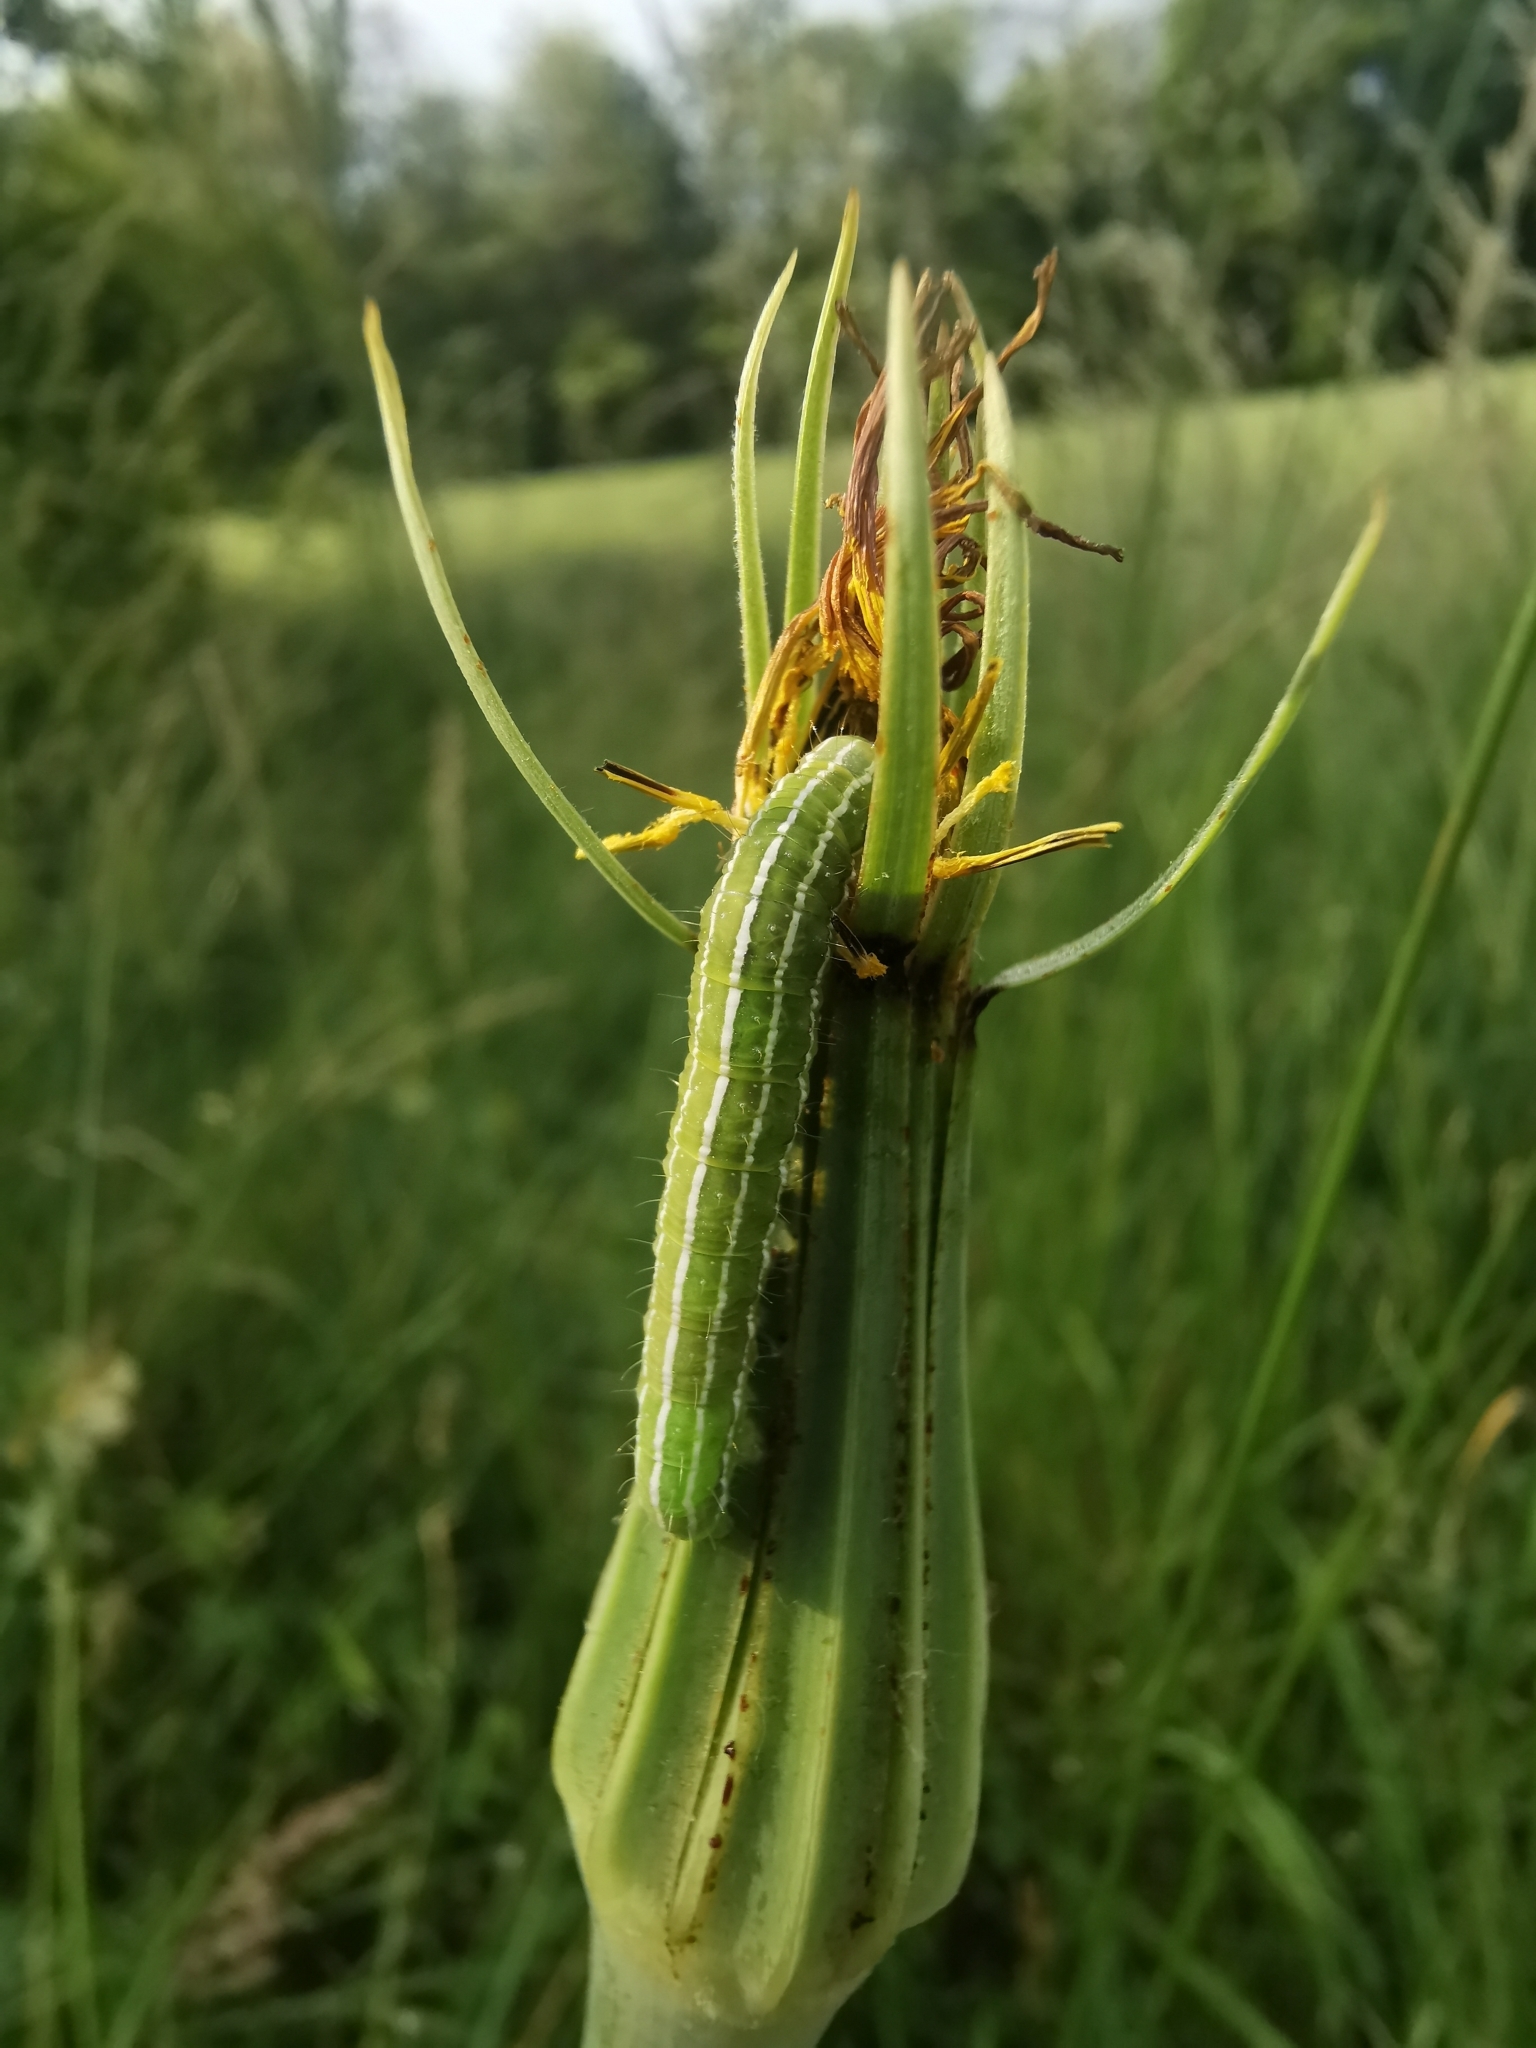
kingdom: Animalia
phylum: Arthropoda
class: Insecta
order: Lepidoptera
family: Noctuidae
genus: Amphipyra
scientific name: Amphipyra tragopoginis
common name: Mouse moth
